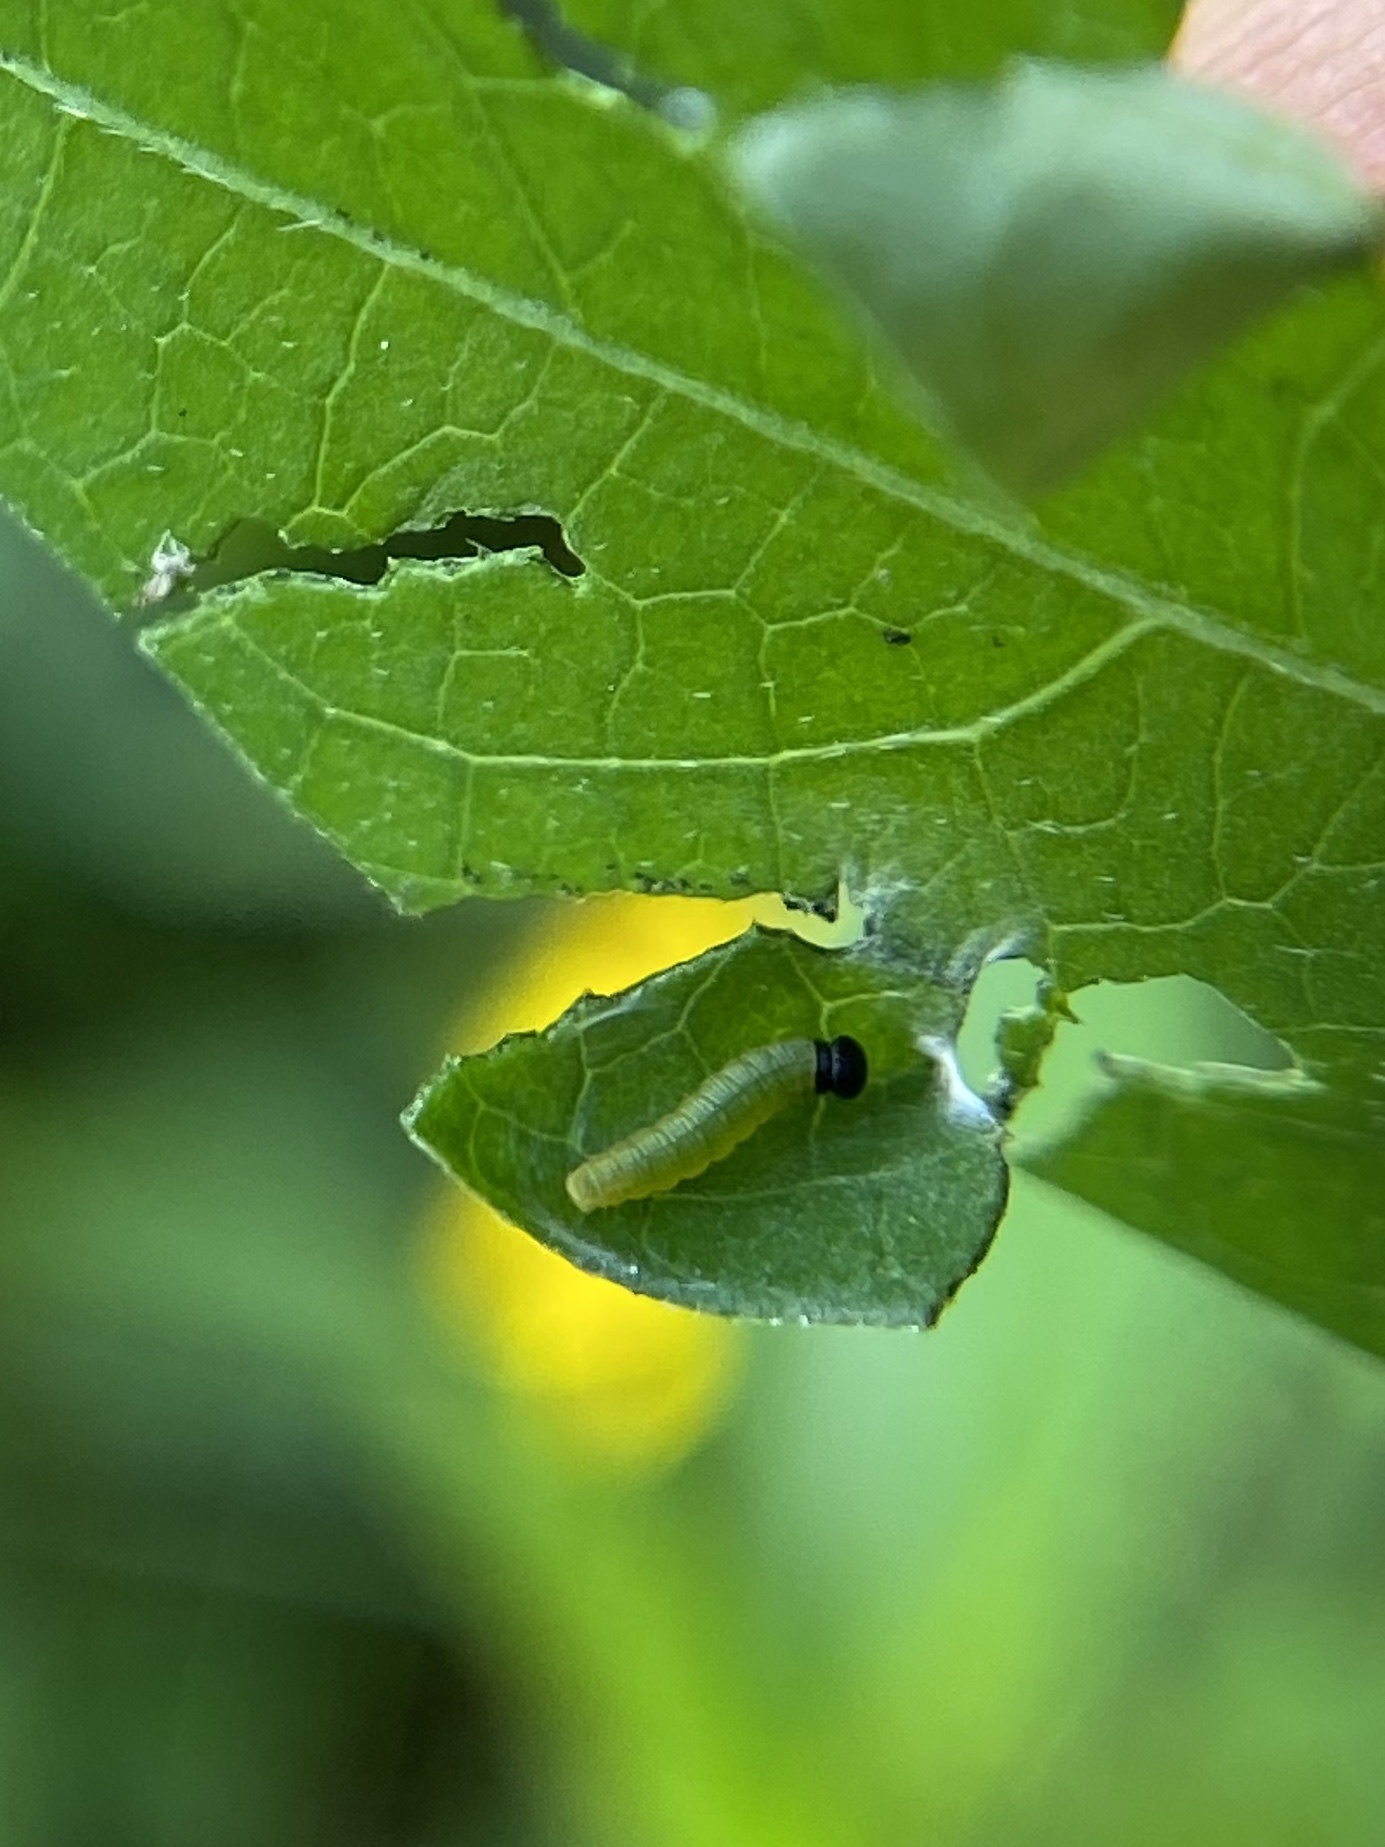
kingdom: Animalia
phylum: Arthropoda
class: Insecta
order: Lepidoptera
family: Hesperiidae
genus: Urbanus
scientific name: Urbanus proteus
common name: Long-tailed skipper
